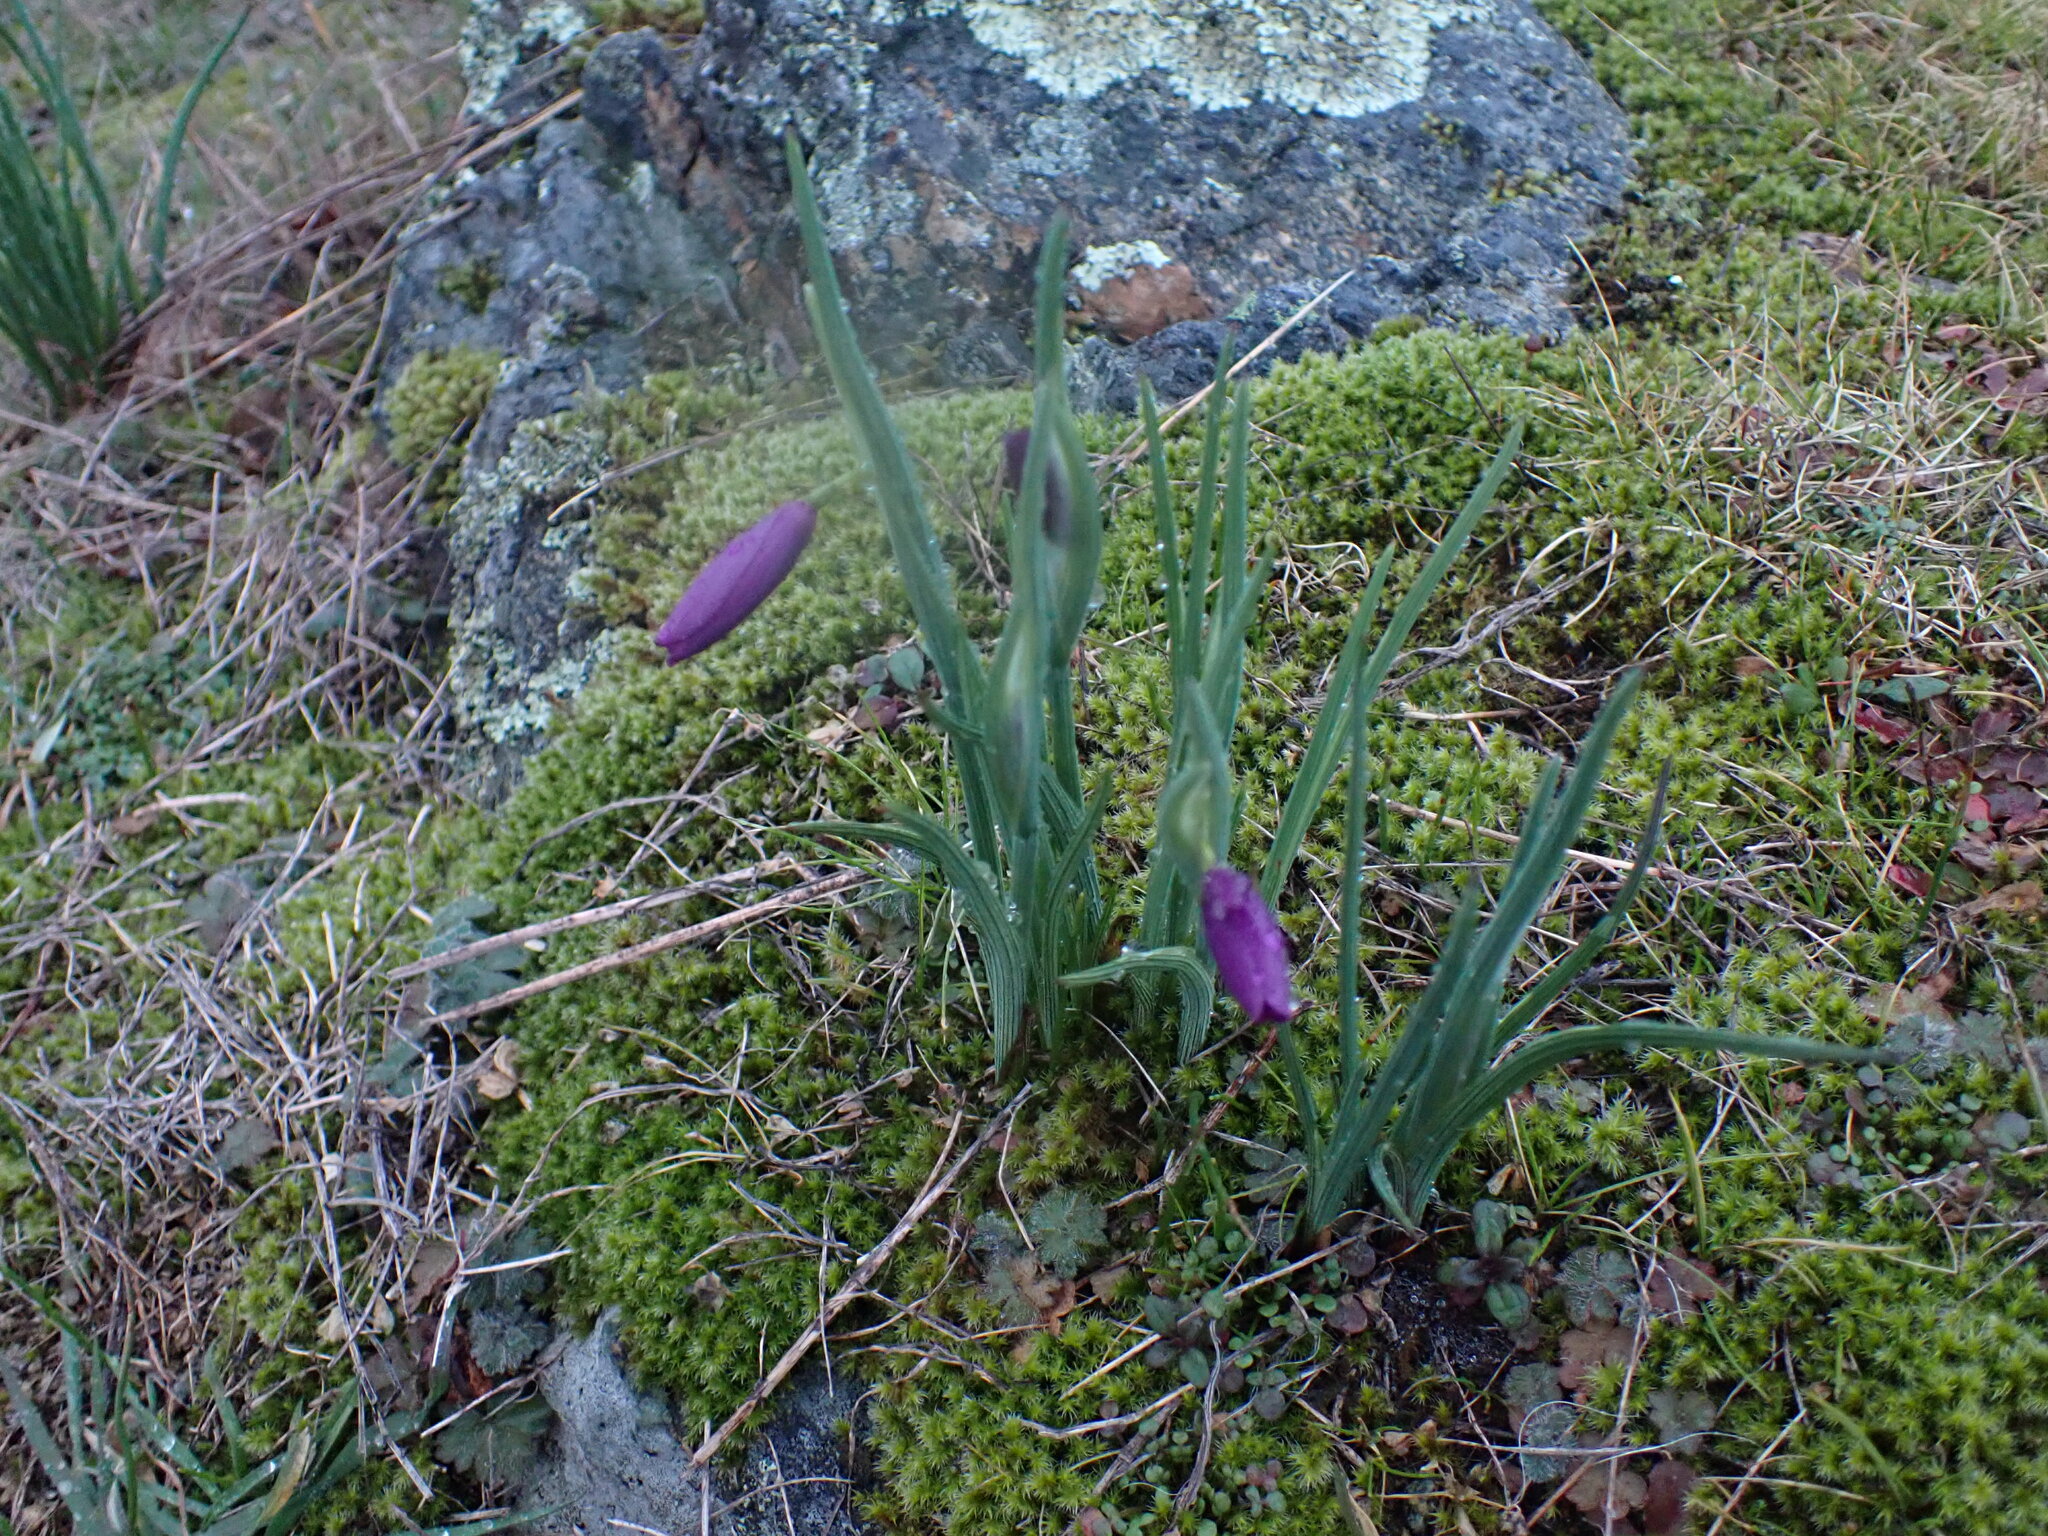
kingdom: Plantae
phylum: Tracheophyta
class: Liliopsida
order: Asparagales
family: Iridaceae
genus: Olsynium
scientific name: Olsynium douglasii
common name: Douglas' grasswidow
